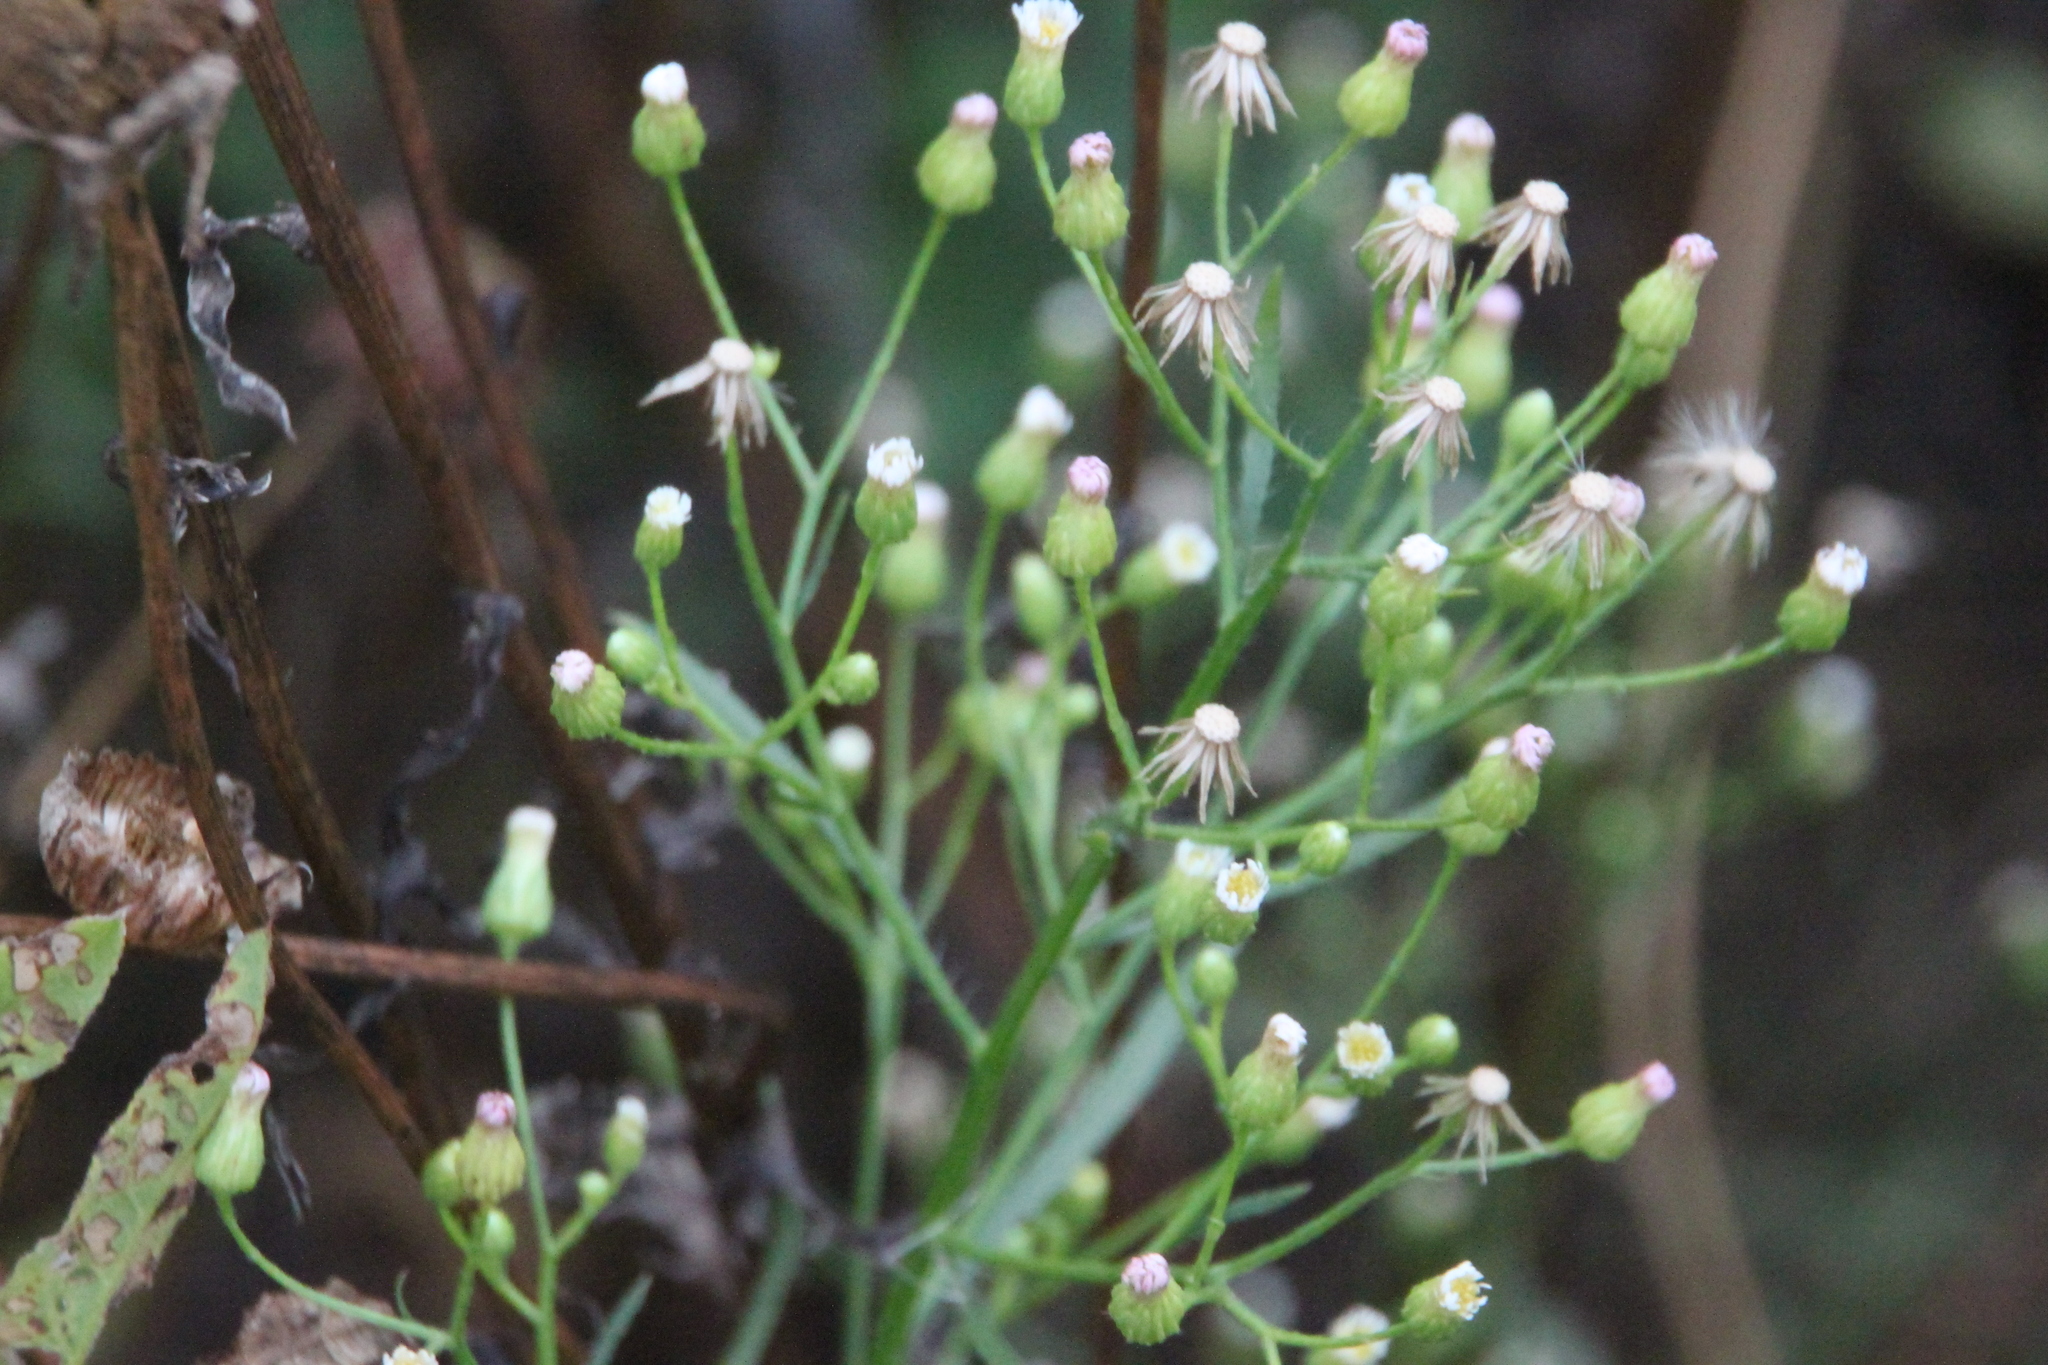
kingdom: Plantae
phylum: Tracheophyta
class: Magnoliopsida
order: Asterales
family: Asteraceae
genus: Erigeron
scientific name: Erigeron canadensis
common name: Canadian fleabane
